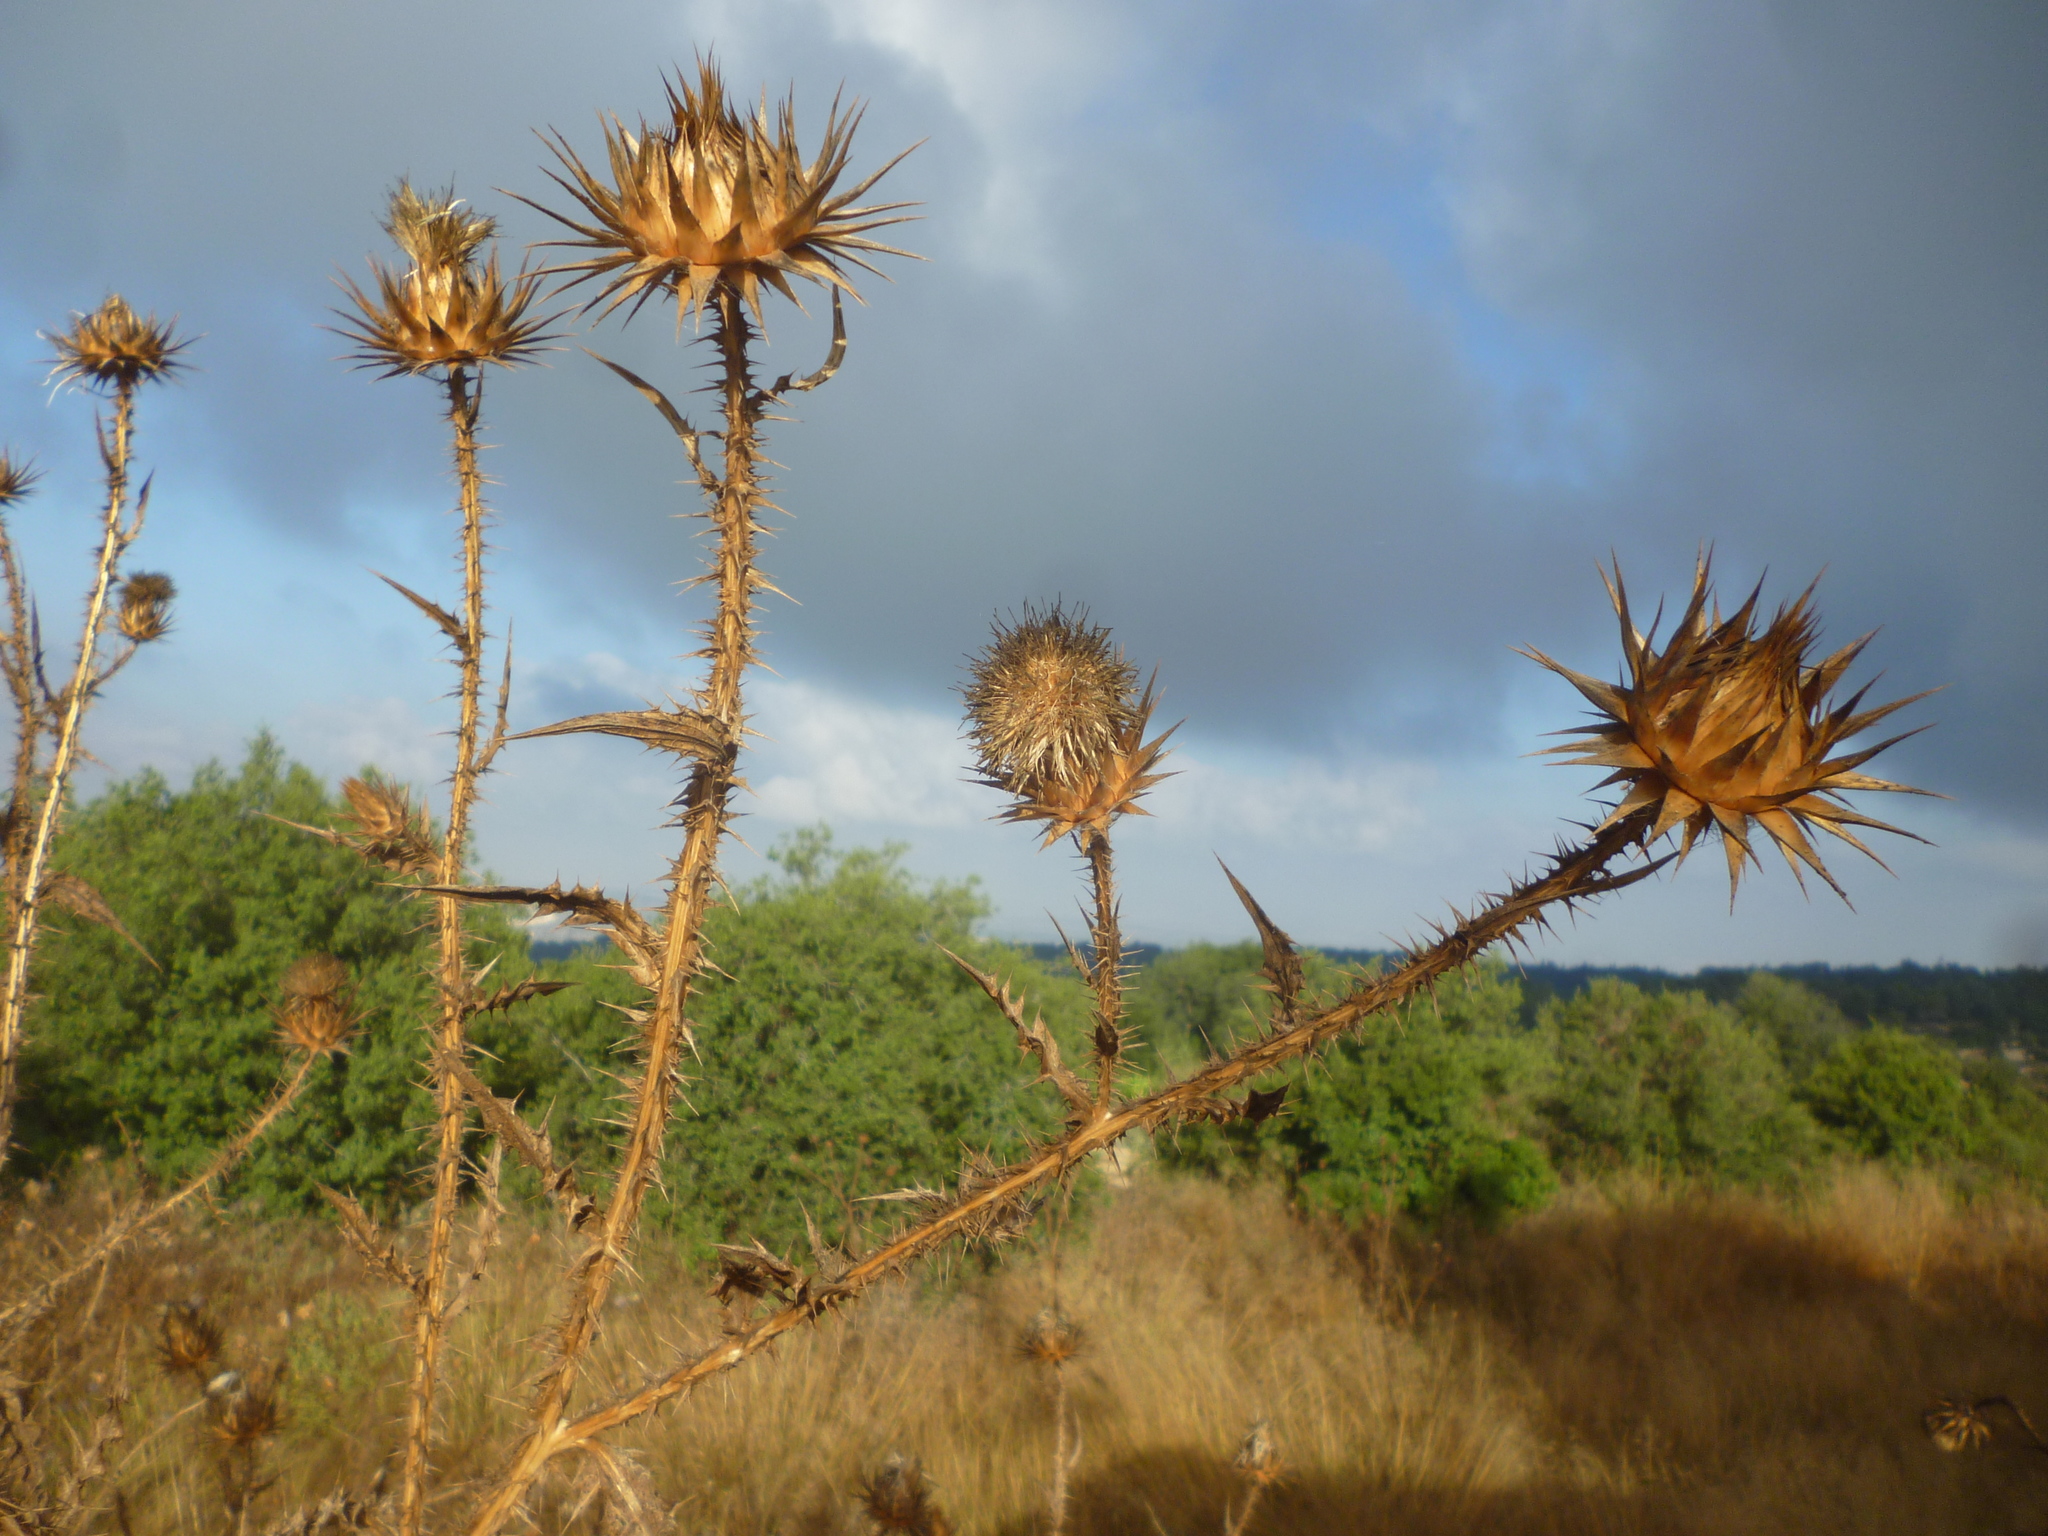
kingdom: Plantae
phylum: Tracheophyta
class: Magnoliopsida
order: Asterales
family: Asteraceae
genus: Onopordum
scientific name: Onopordum cynarocephalum
